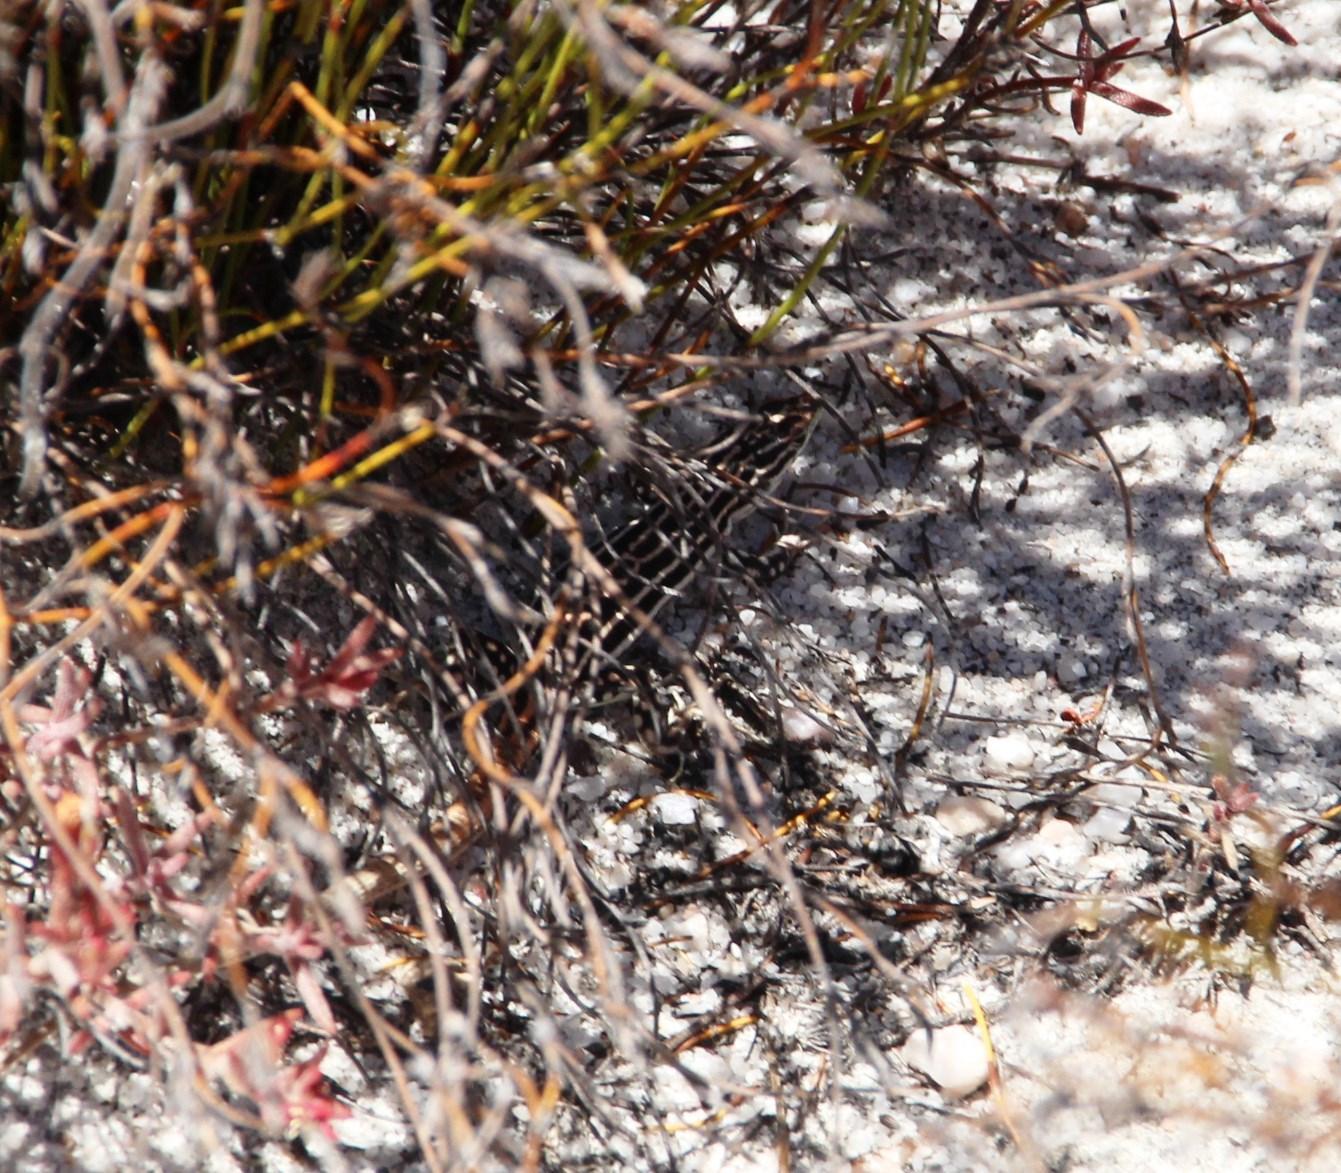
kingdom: Animalia
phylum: Chordata
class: Squamata
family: Lacertidae
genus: Pedioplanis
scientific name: Pedioplanis burchelli
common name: Burchell's sand lizard
